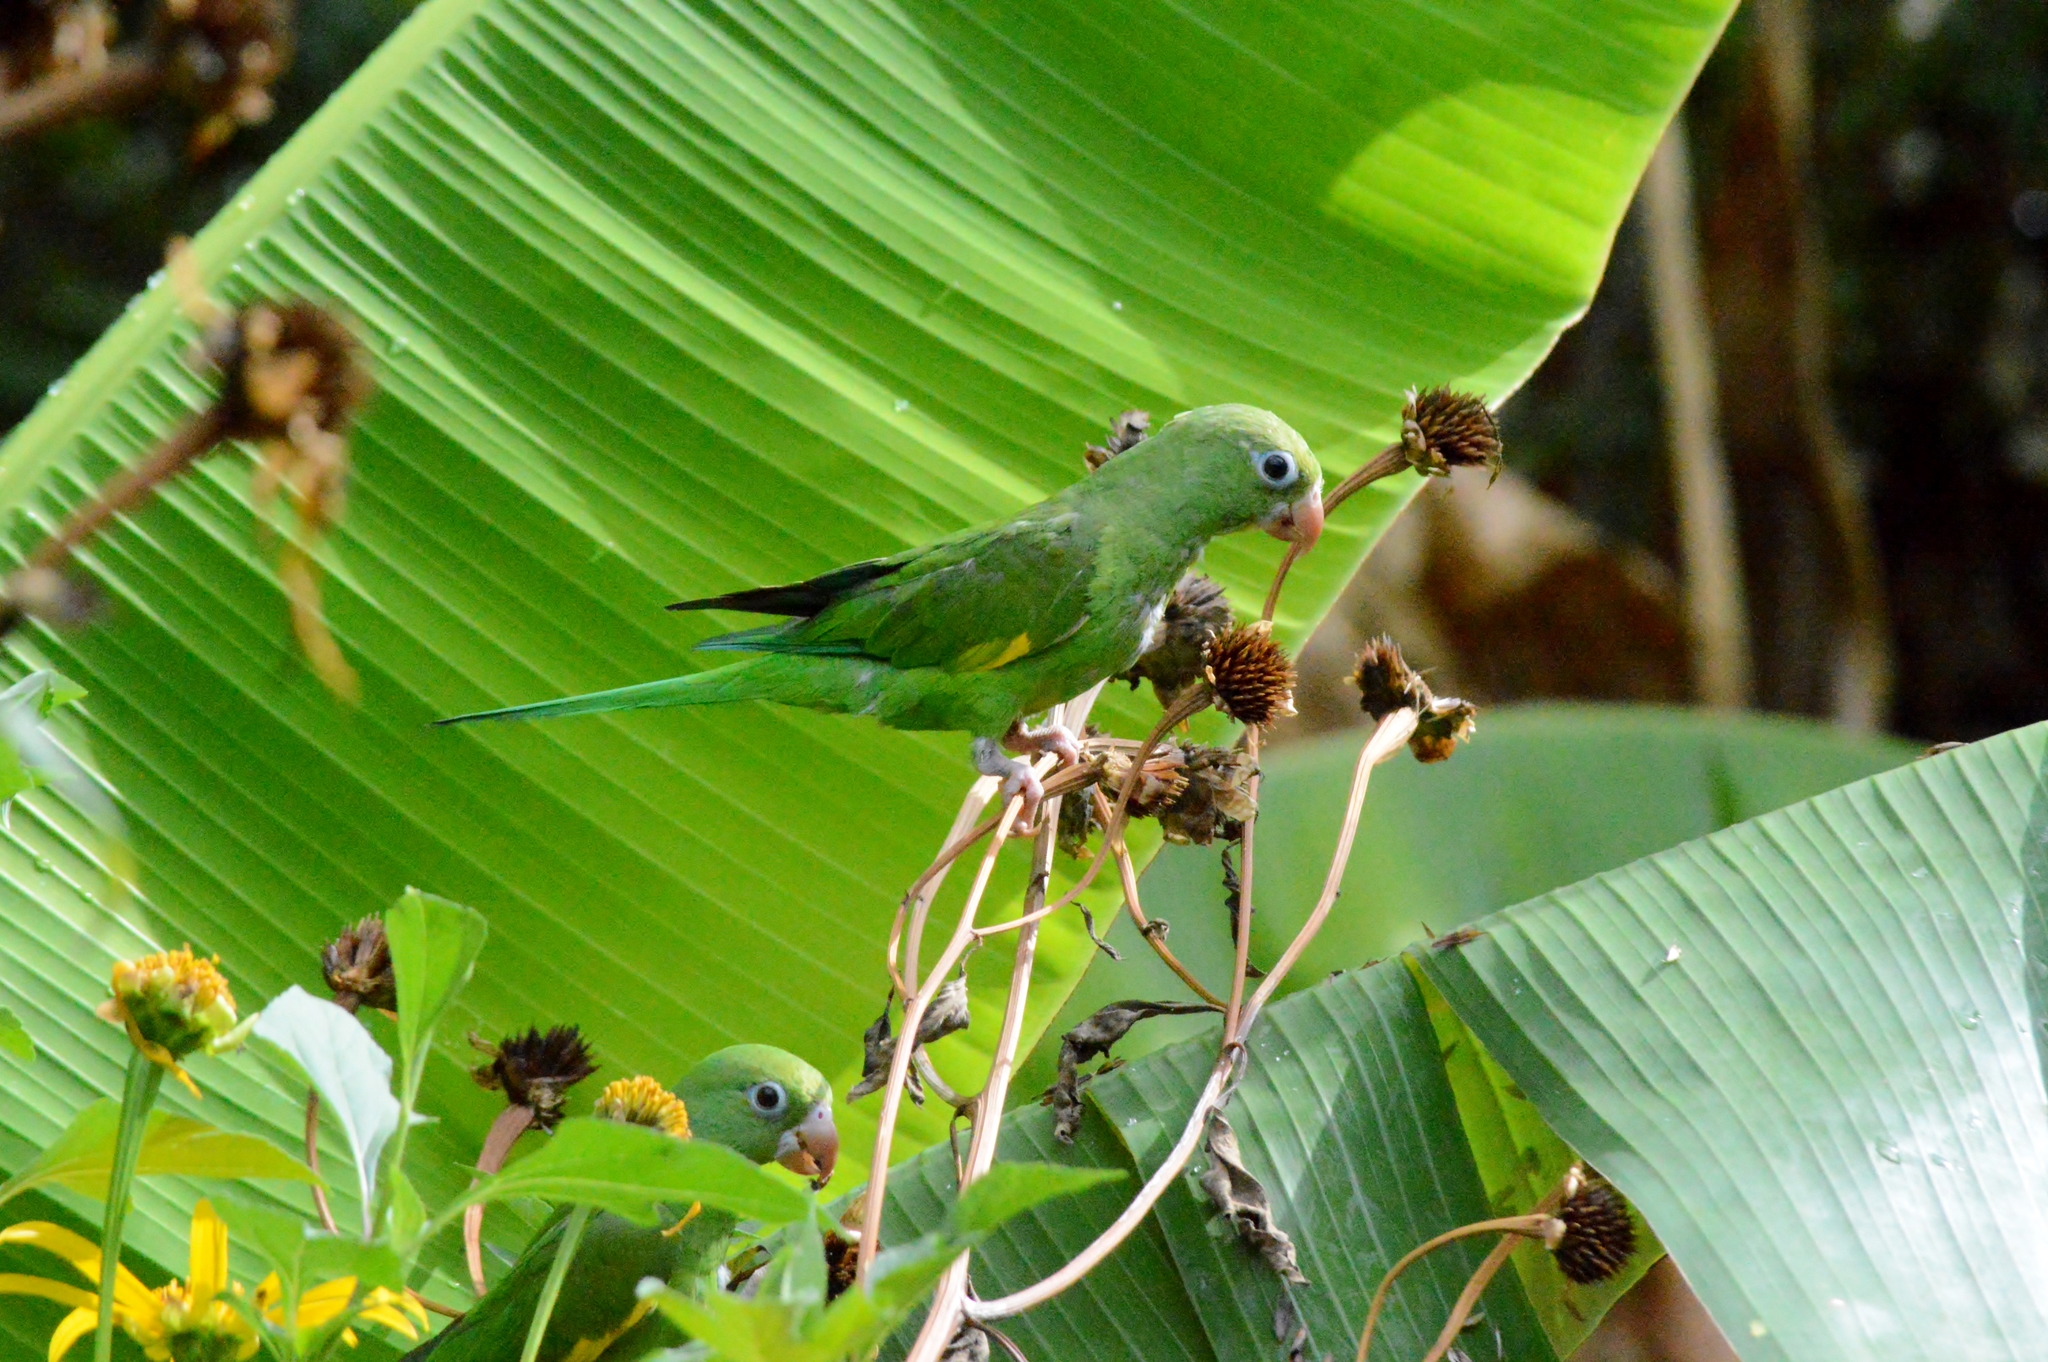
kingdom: Animalia
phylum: Chordata
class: Aves
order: Psittaciformes
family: Psittacidae
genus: Brotogeris
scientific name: Brotogeris chiriri
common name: Yellow-chevroned parakeet
